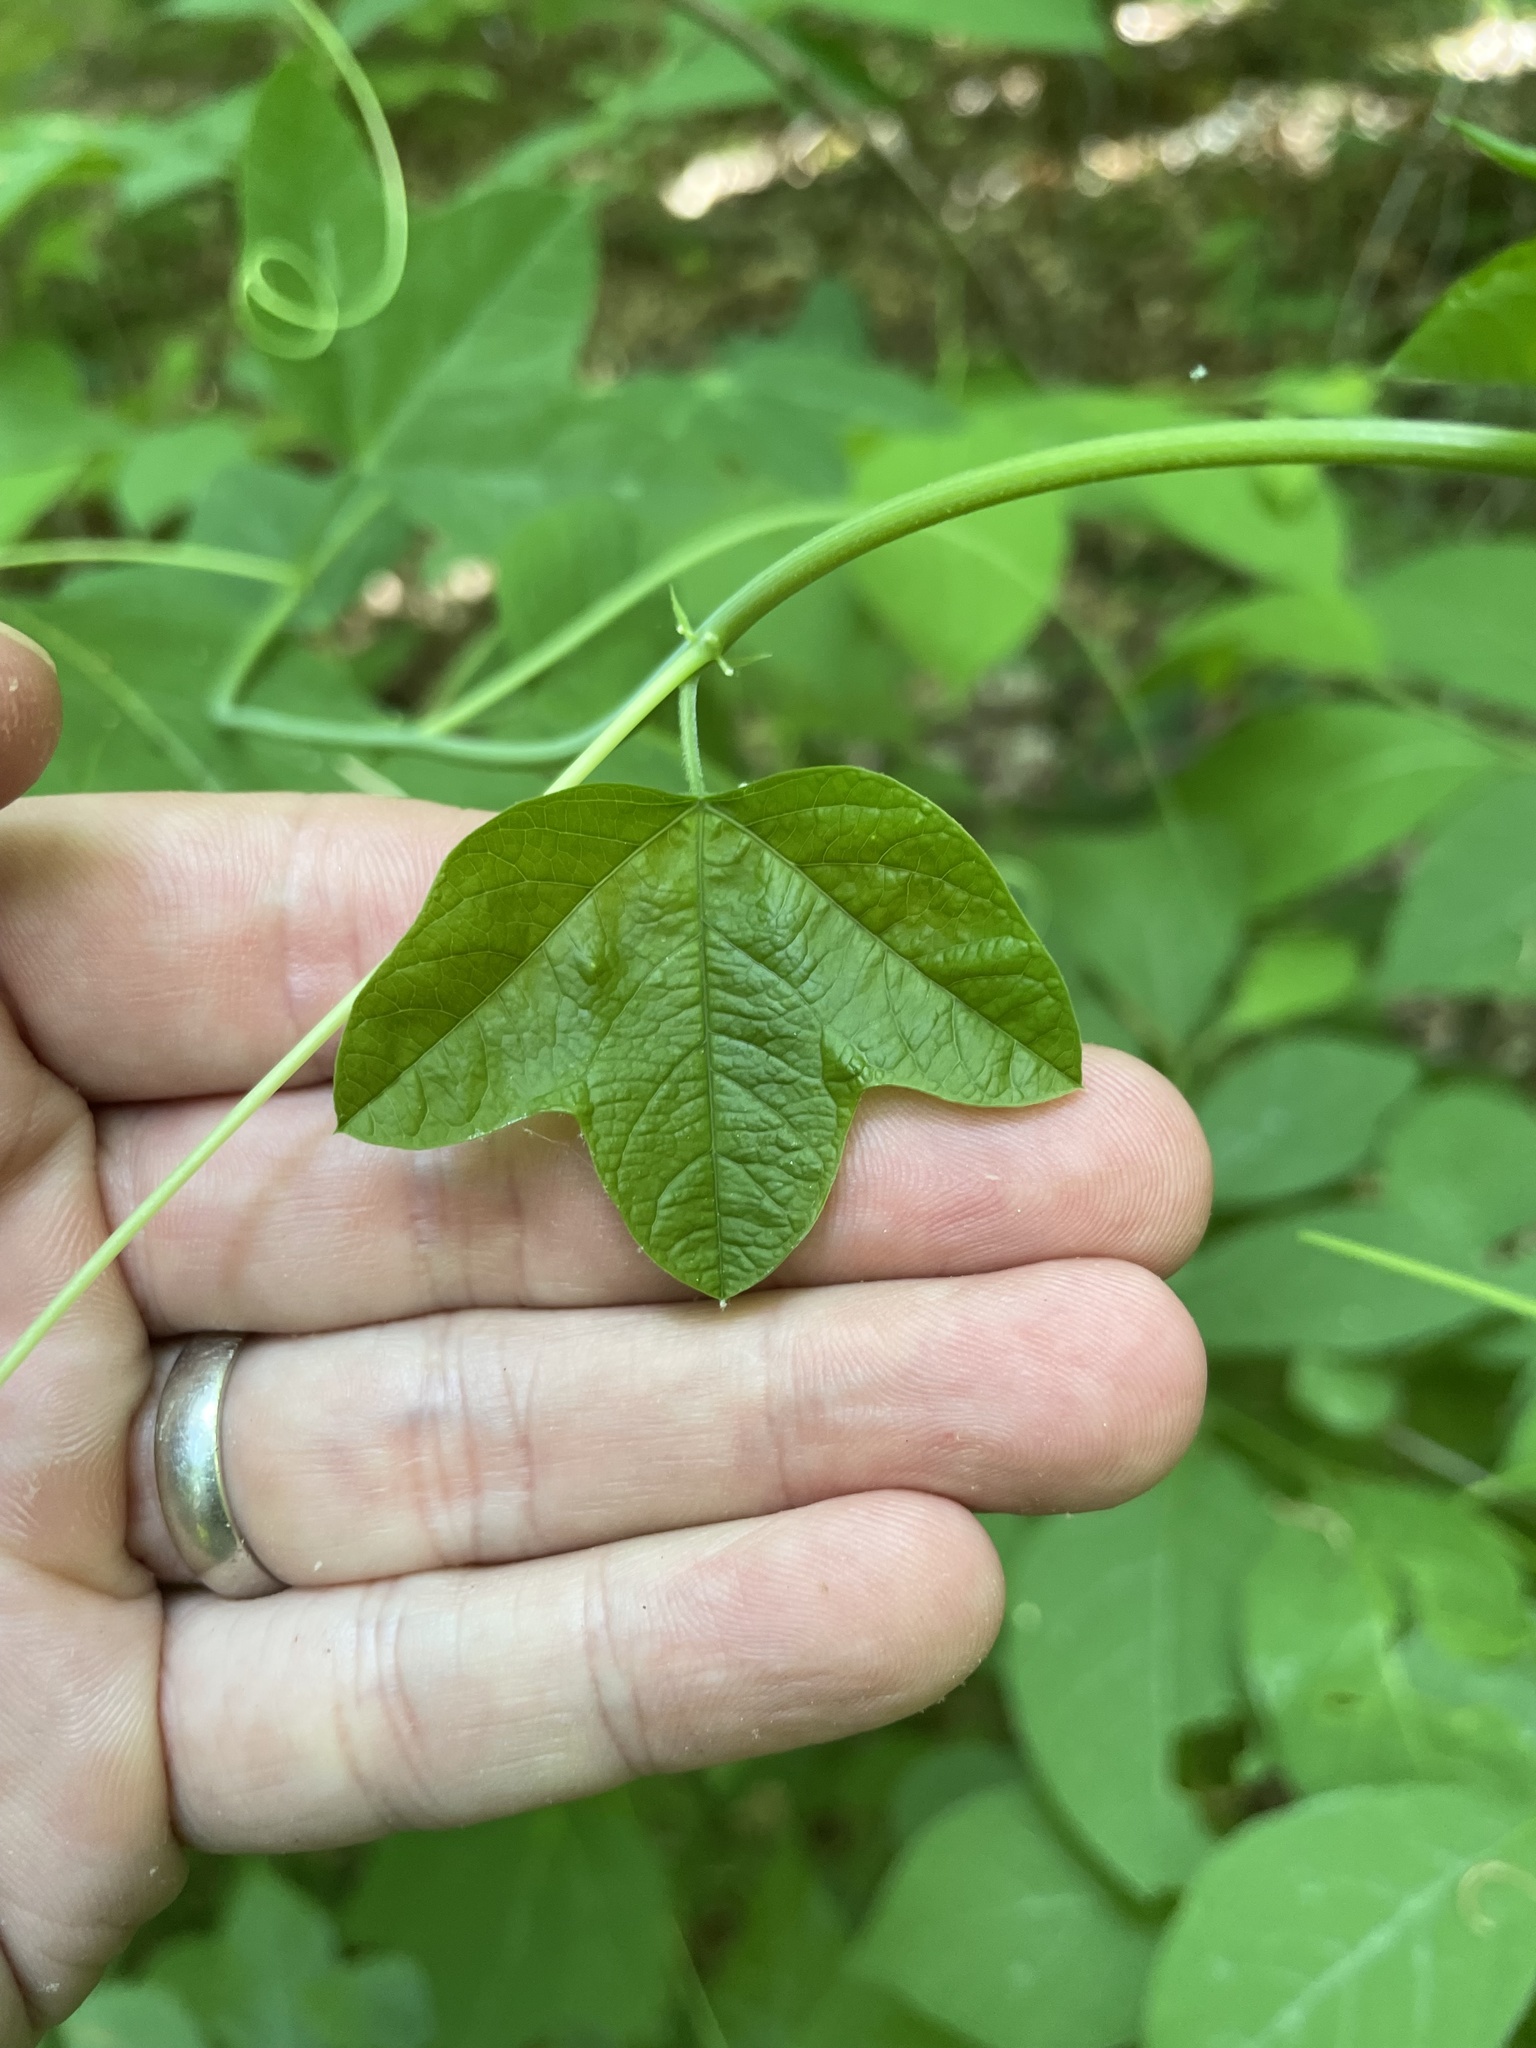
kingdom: Plantae
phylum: Tracheophyta
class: Magnoliopsida
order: Malpighiales
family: Passifloraceae
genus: Passiflora
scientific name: Passiflora lutea
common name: Yellow passionflower
